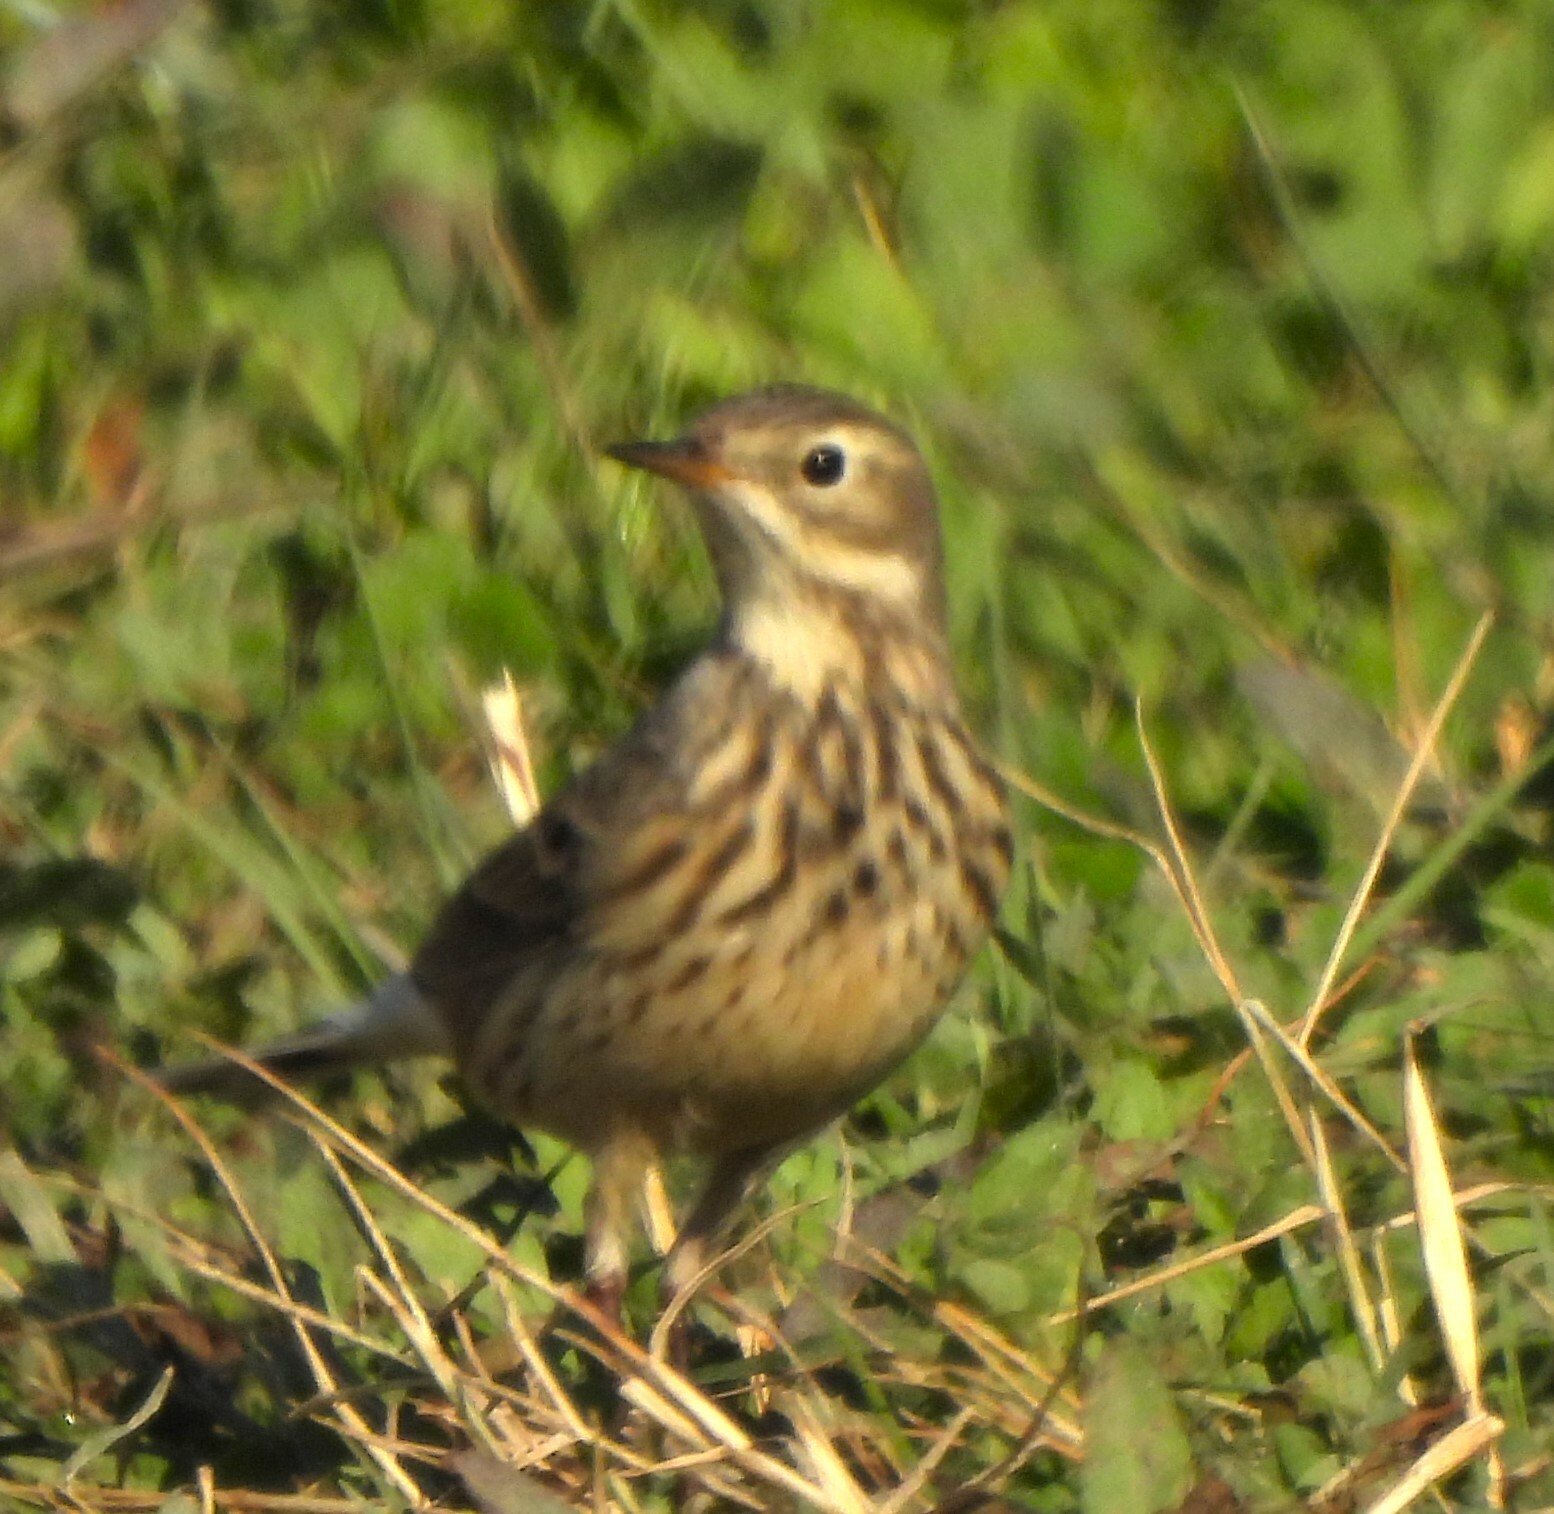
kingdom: Animalia
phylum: Chordata
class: Aves
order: Passeriformes
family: Motacillidae
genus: Anthus
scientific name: Anthus rubescens
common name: Buff-bellied pipit
